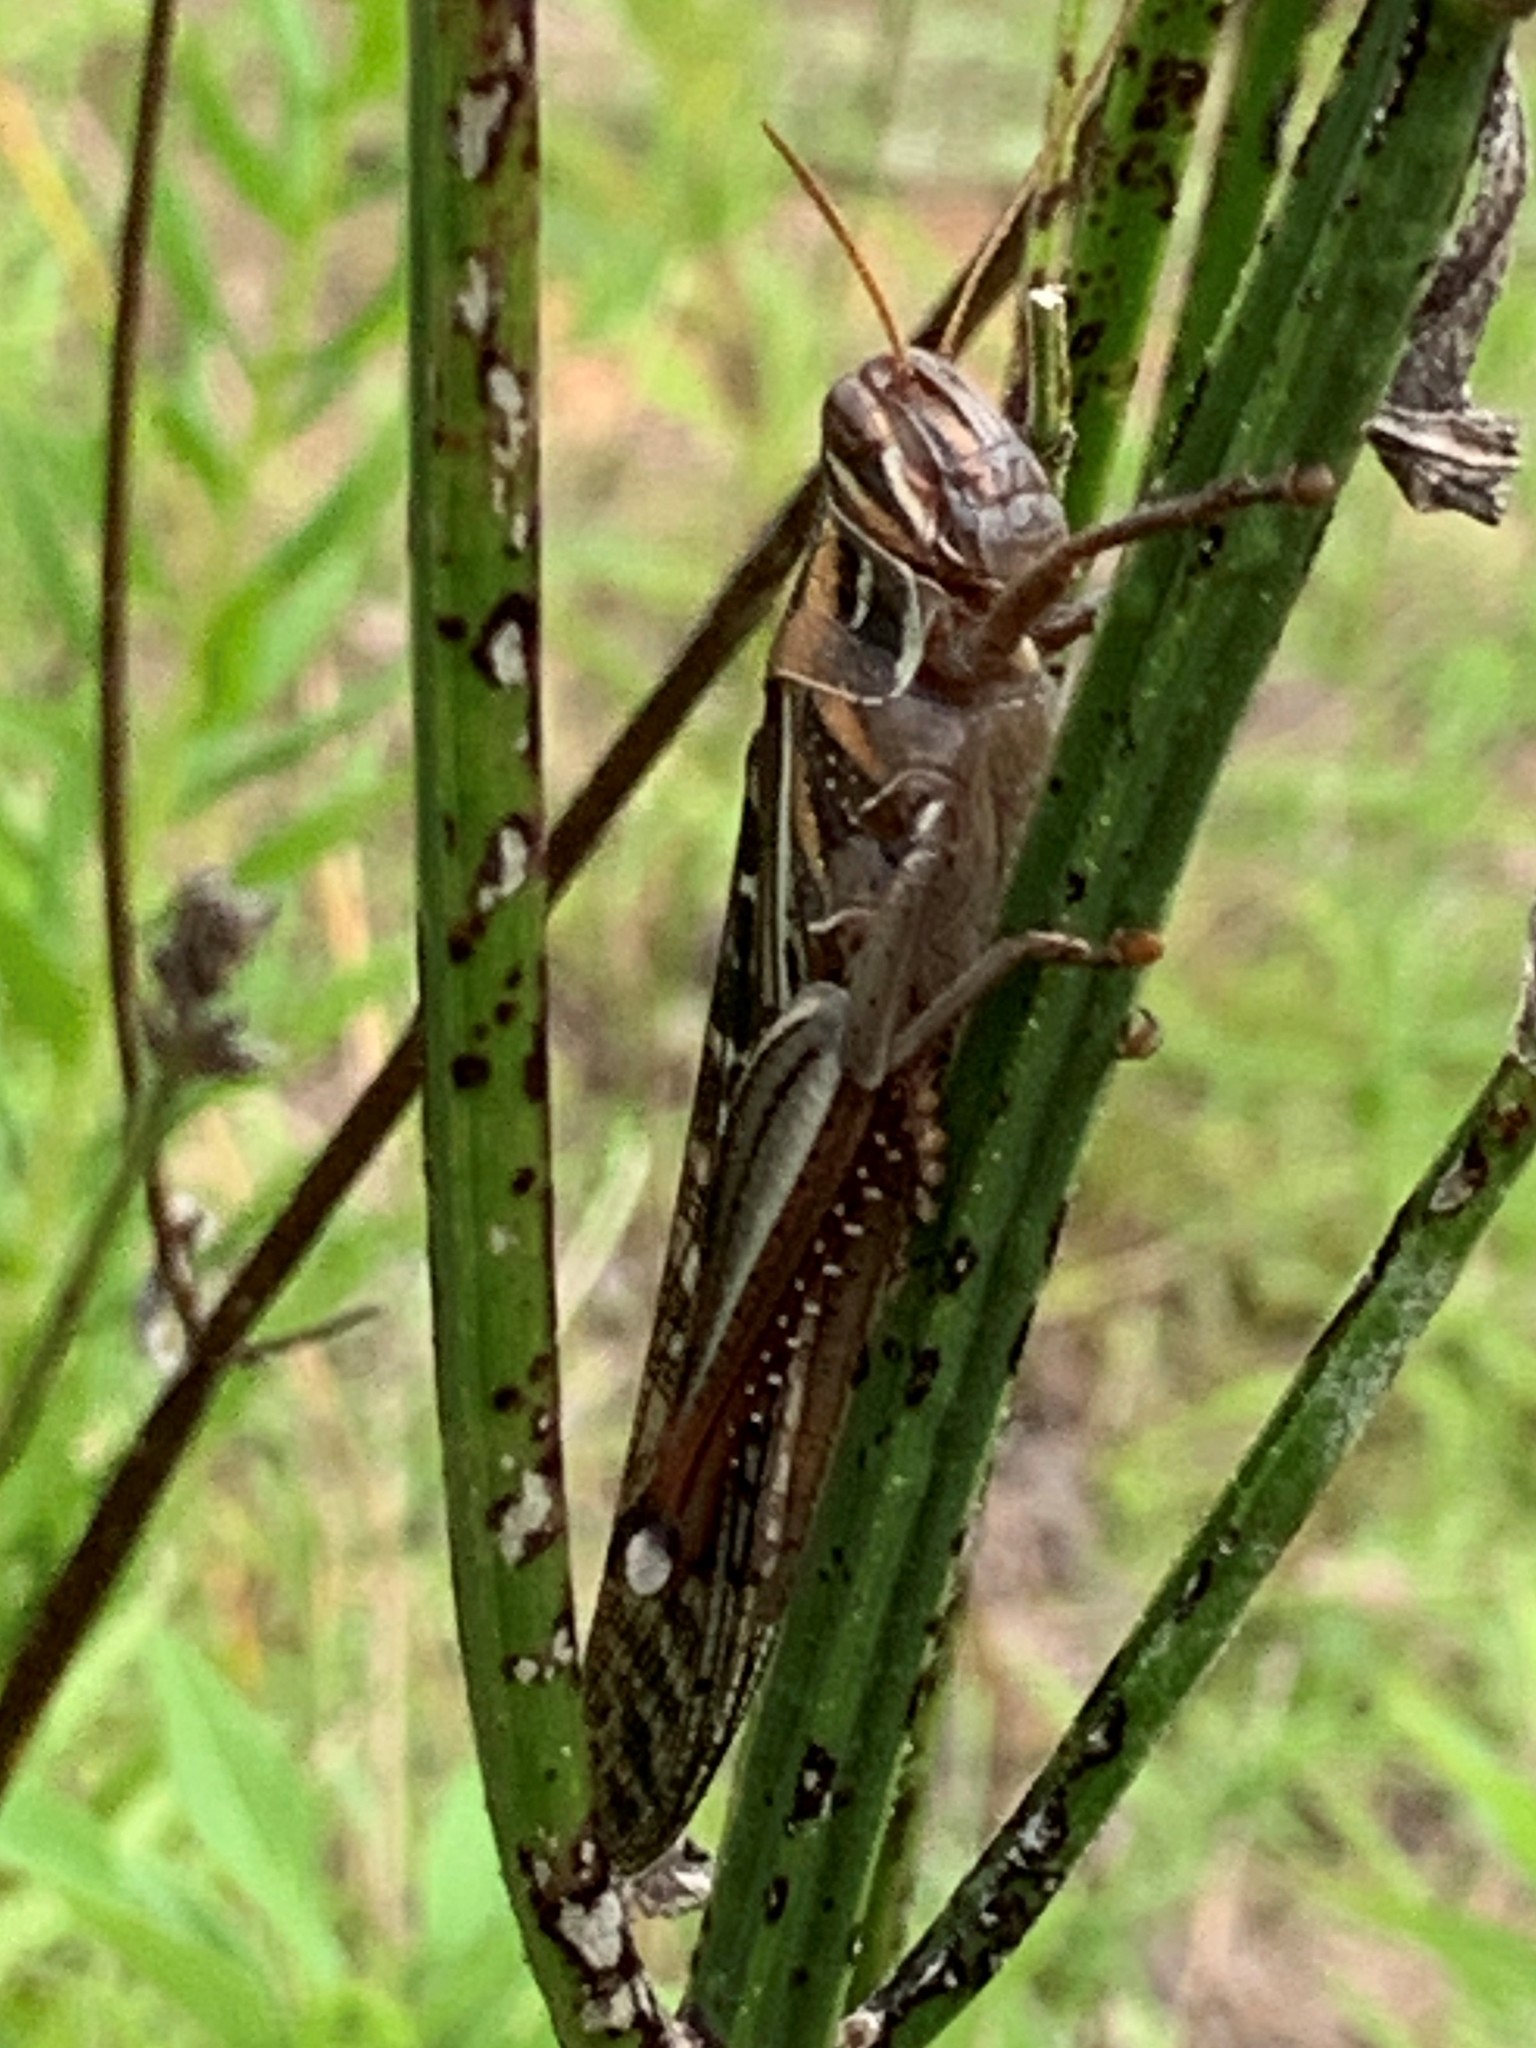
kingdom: Animalia
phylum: Arthropoda
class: Insecta
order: Orthoptera
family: Acrididae
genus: Schistocerca
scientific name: Schistocerca americana
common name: American bird locust
